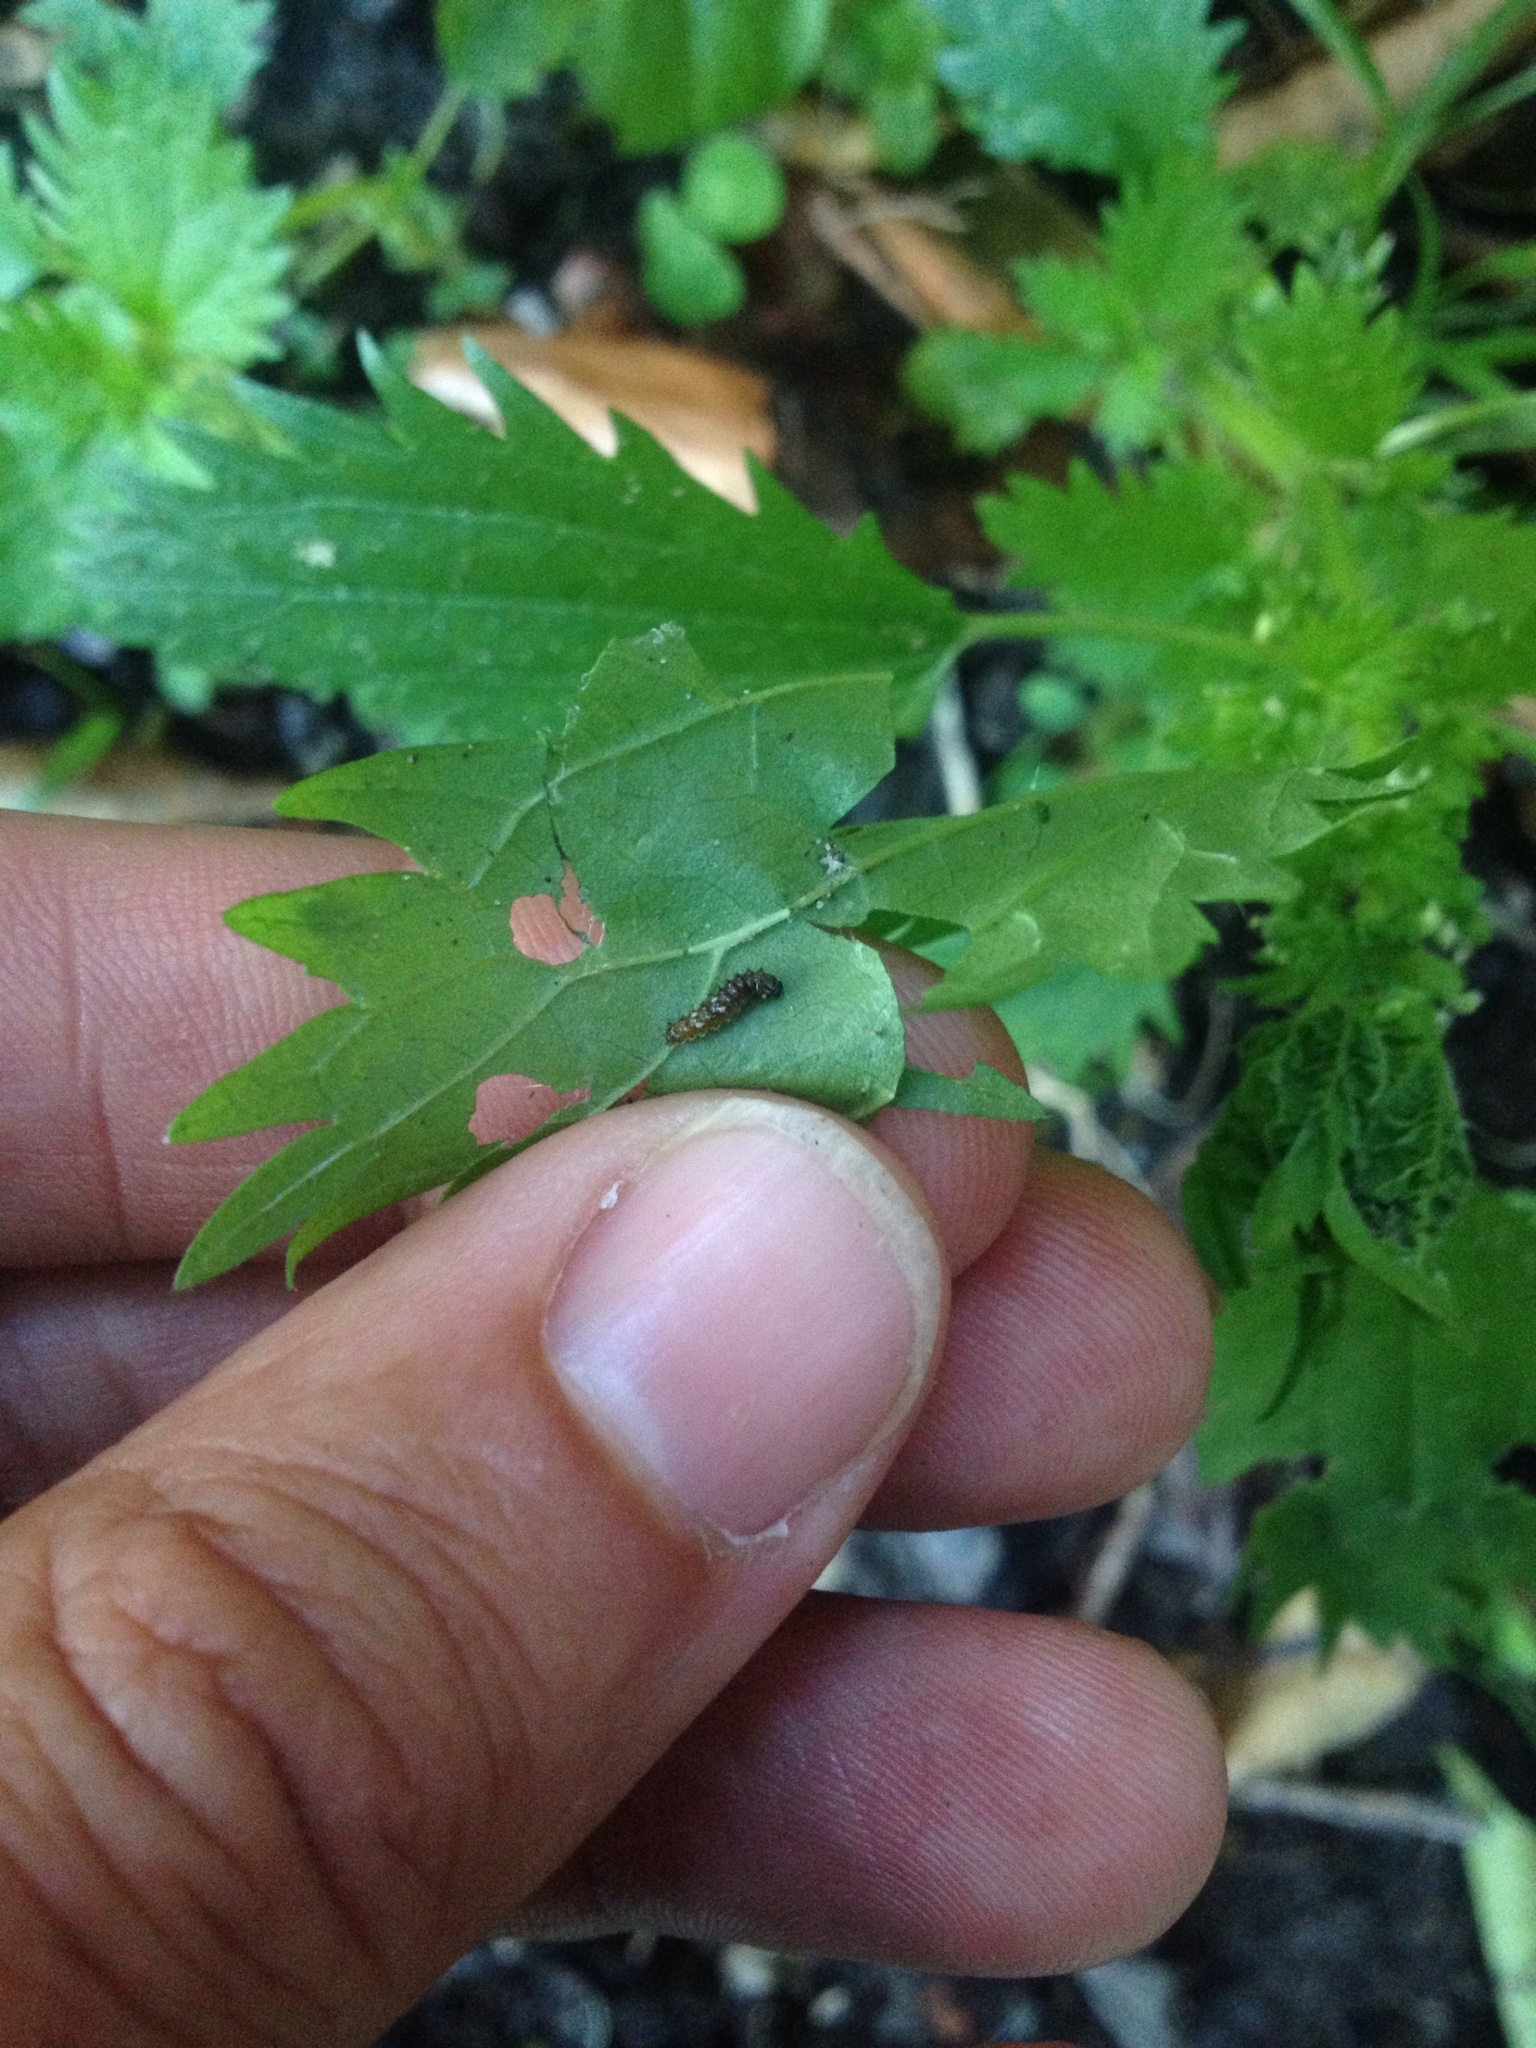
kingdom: Animalia
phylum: Arthropoda
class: Insecta
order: Lepidoptera
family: Nymphalidae
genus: Vanessa
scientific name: Vanessa itea
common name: Yellow admiral
